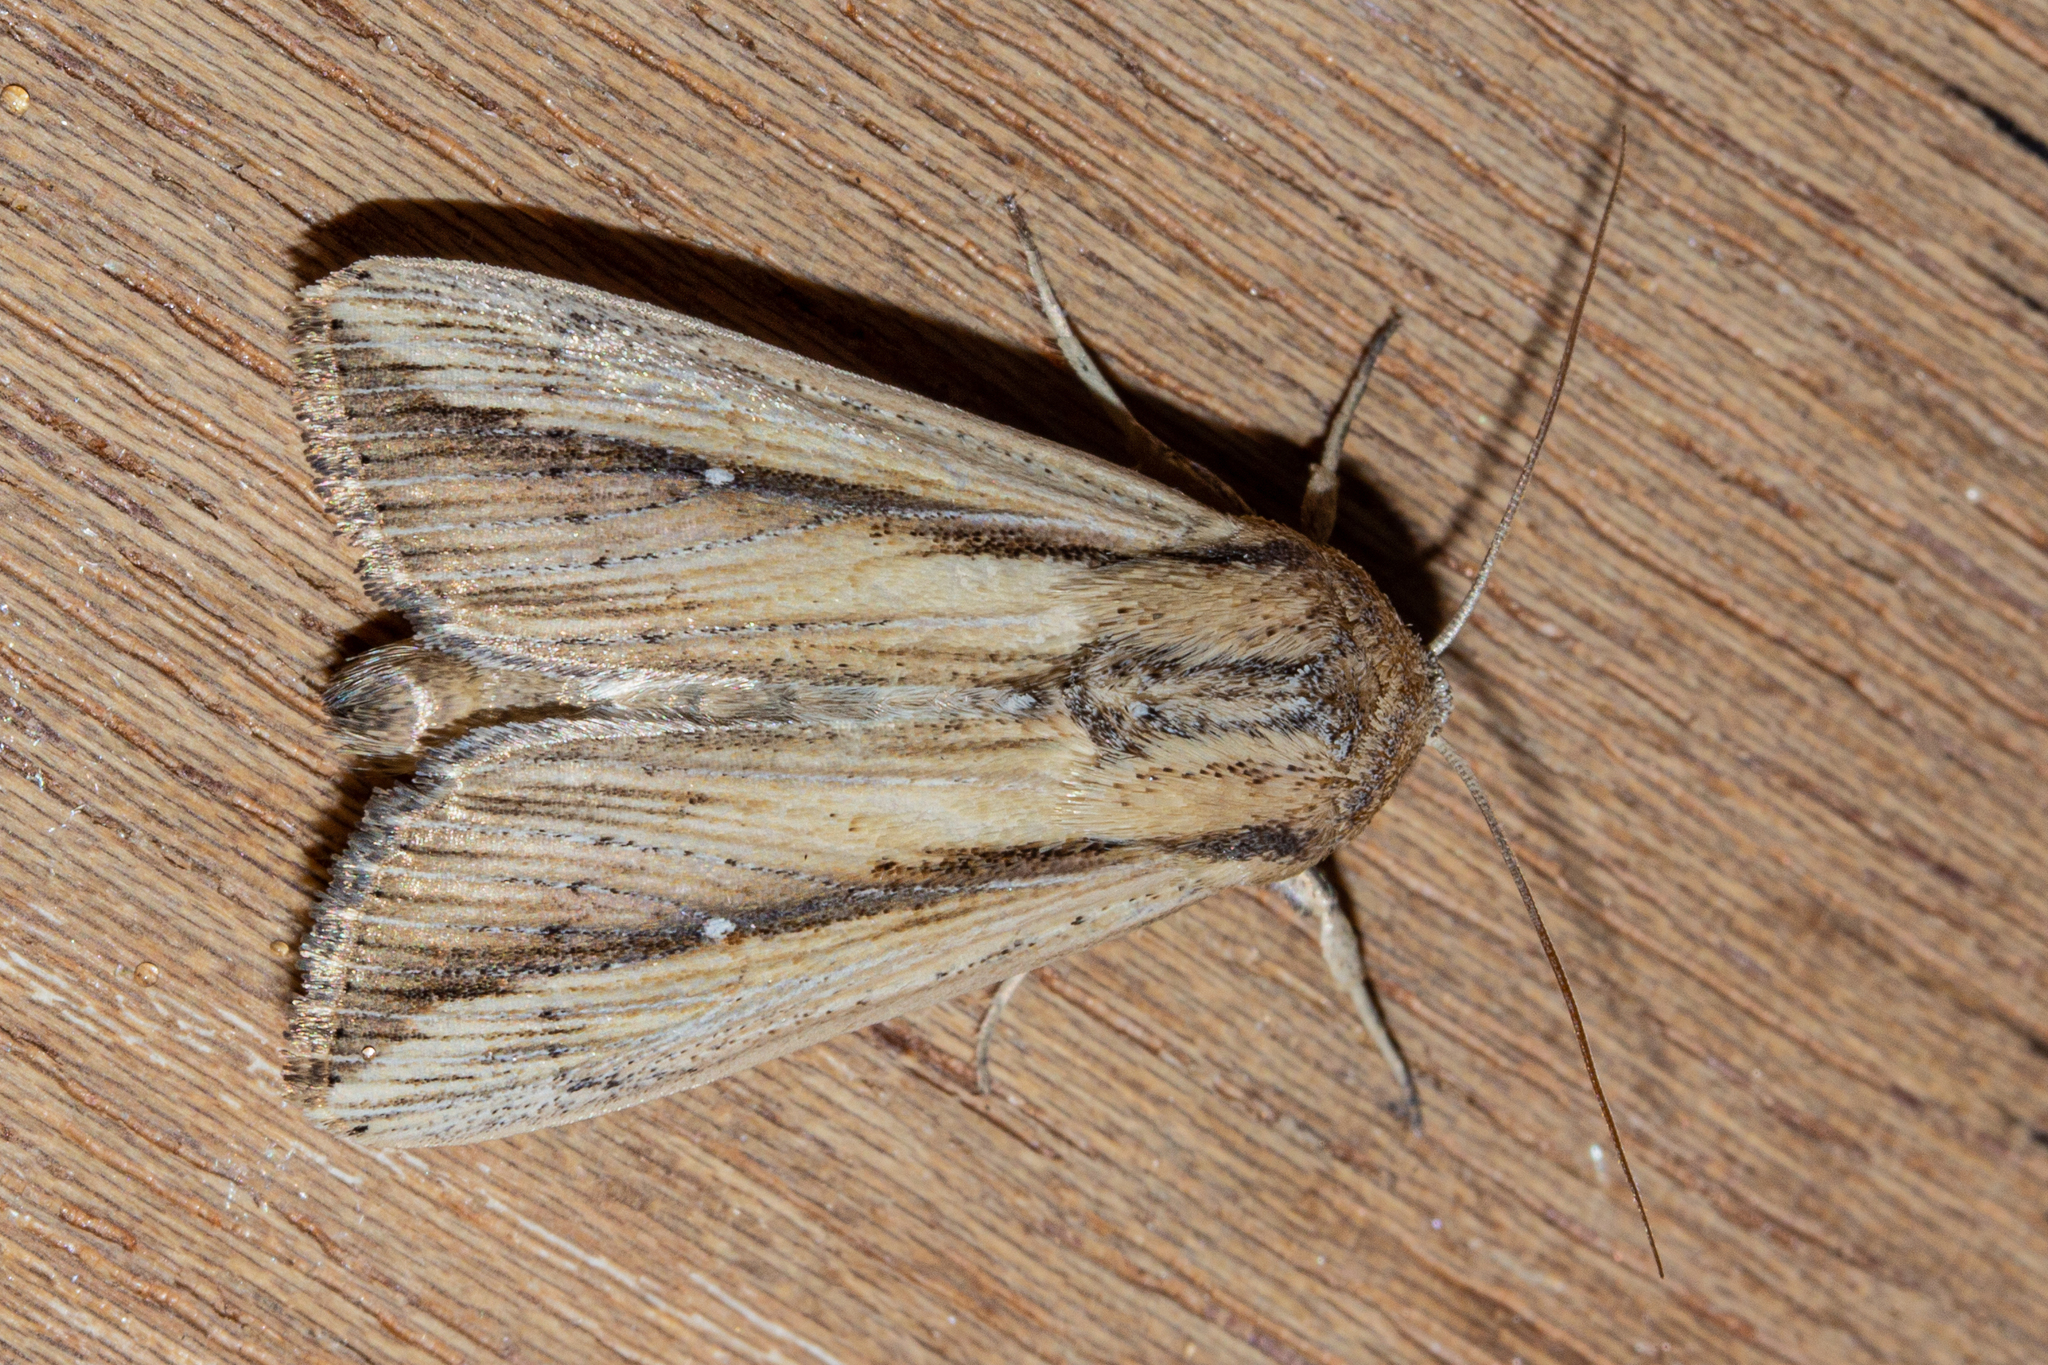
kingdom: Animalia
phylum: Arthropoda
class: Insecta
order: Lepidoptera
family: Noctuidae
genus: Leucania
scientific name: Leucania stenographa
